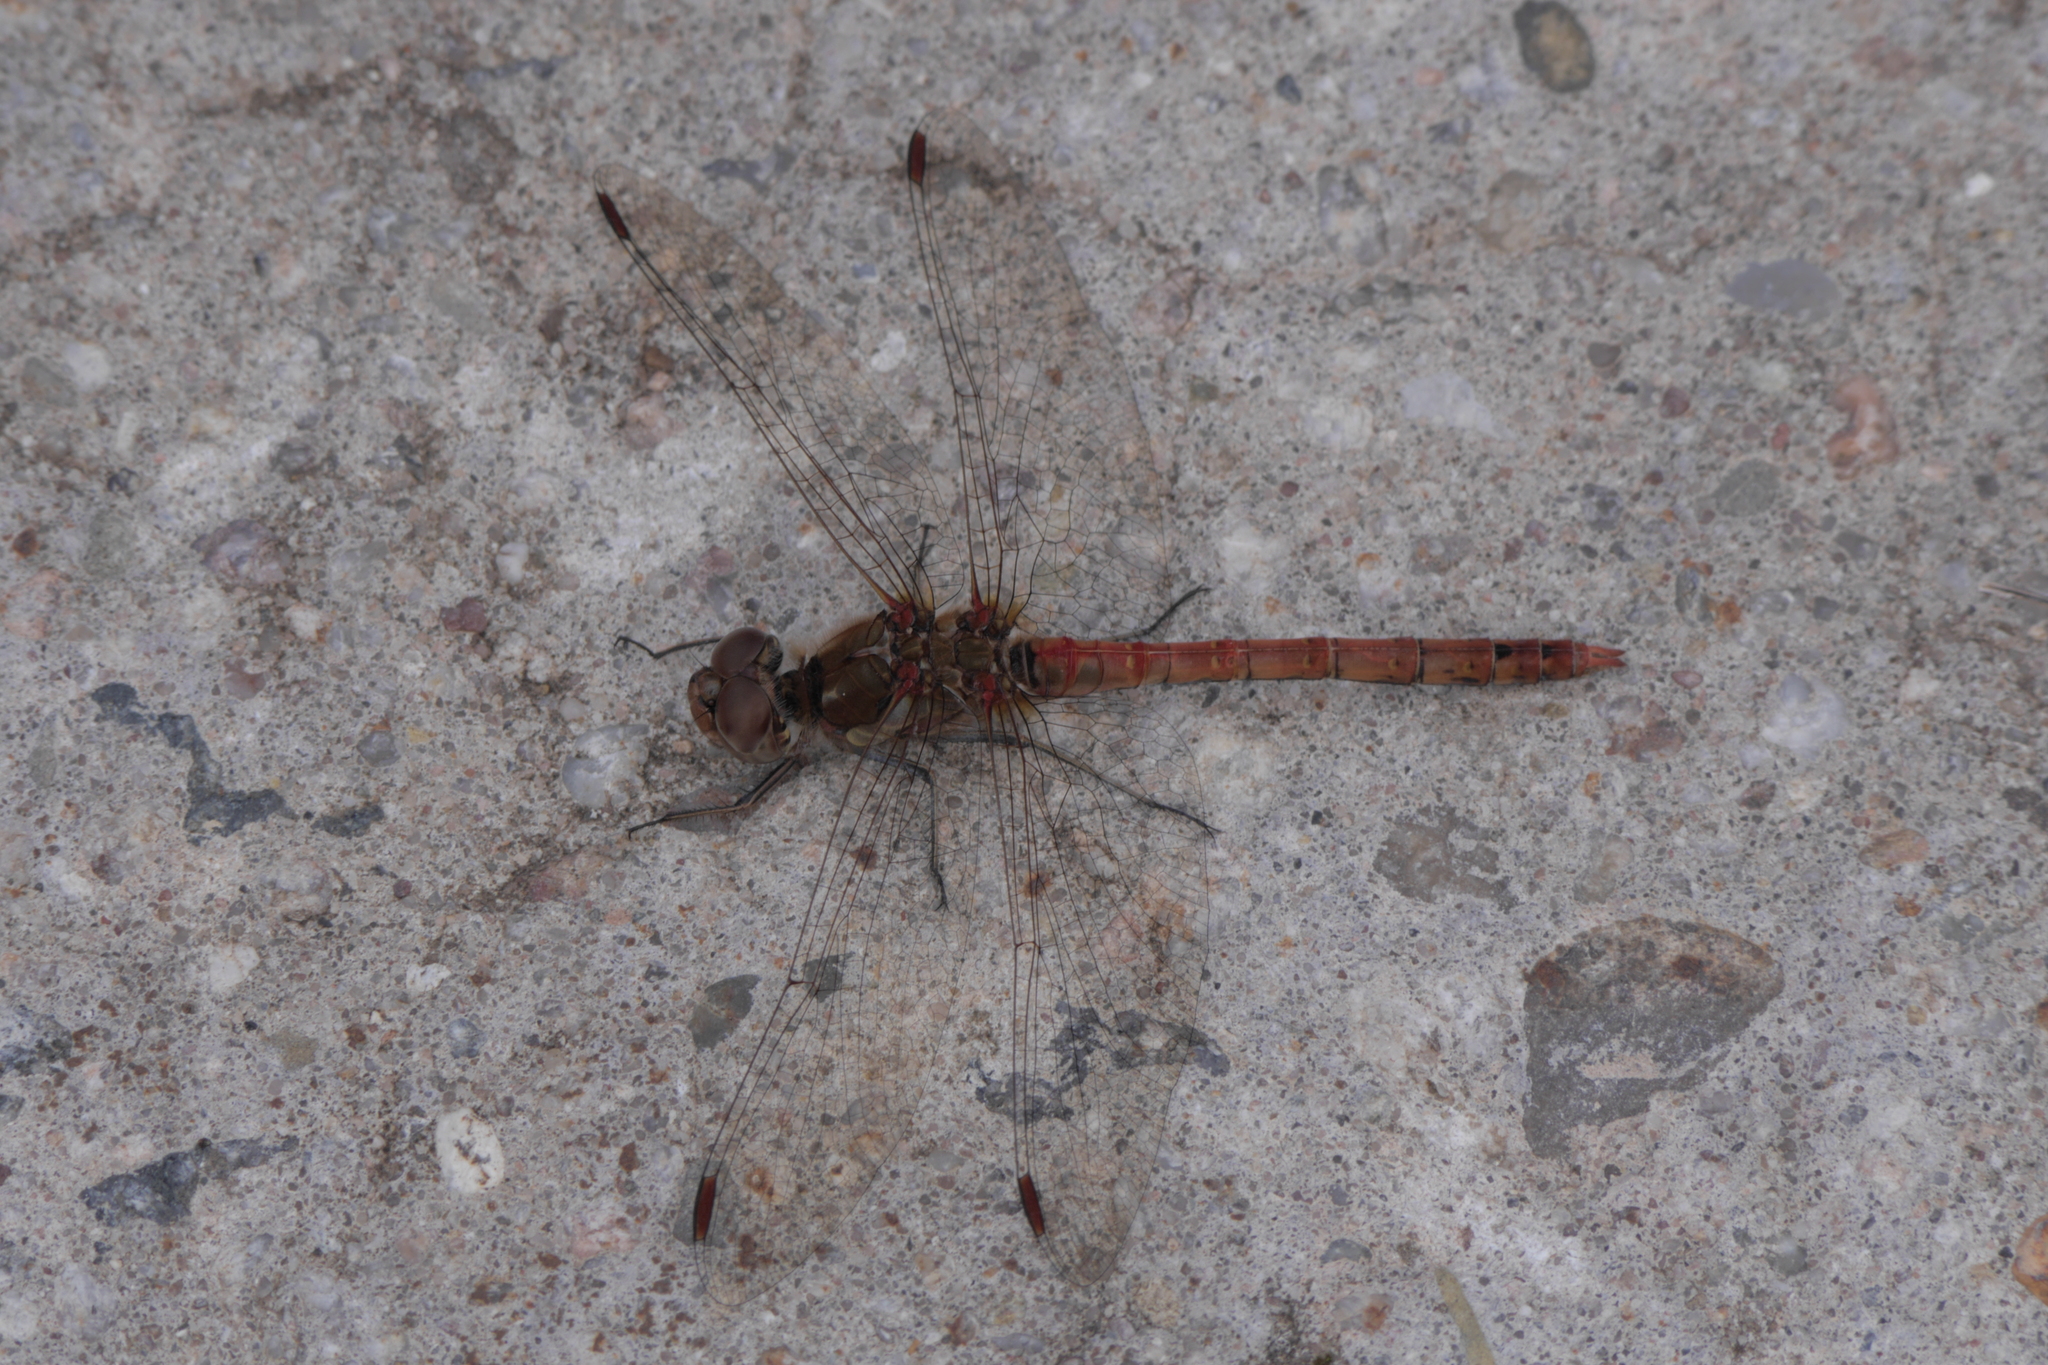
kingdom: Animalia
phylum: Arthropoda
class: Insecta
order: Odonata
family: Libellulidae
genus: Sympetrum
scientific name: Sympetrum striolatum
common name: Common darter
